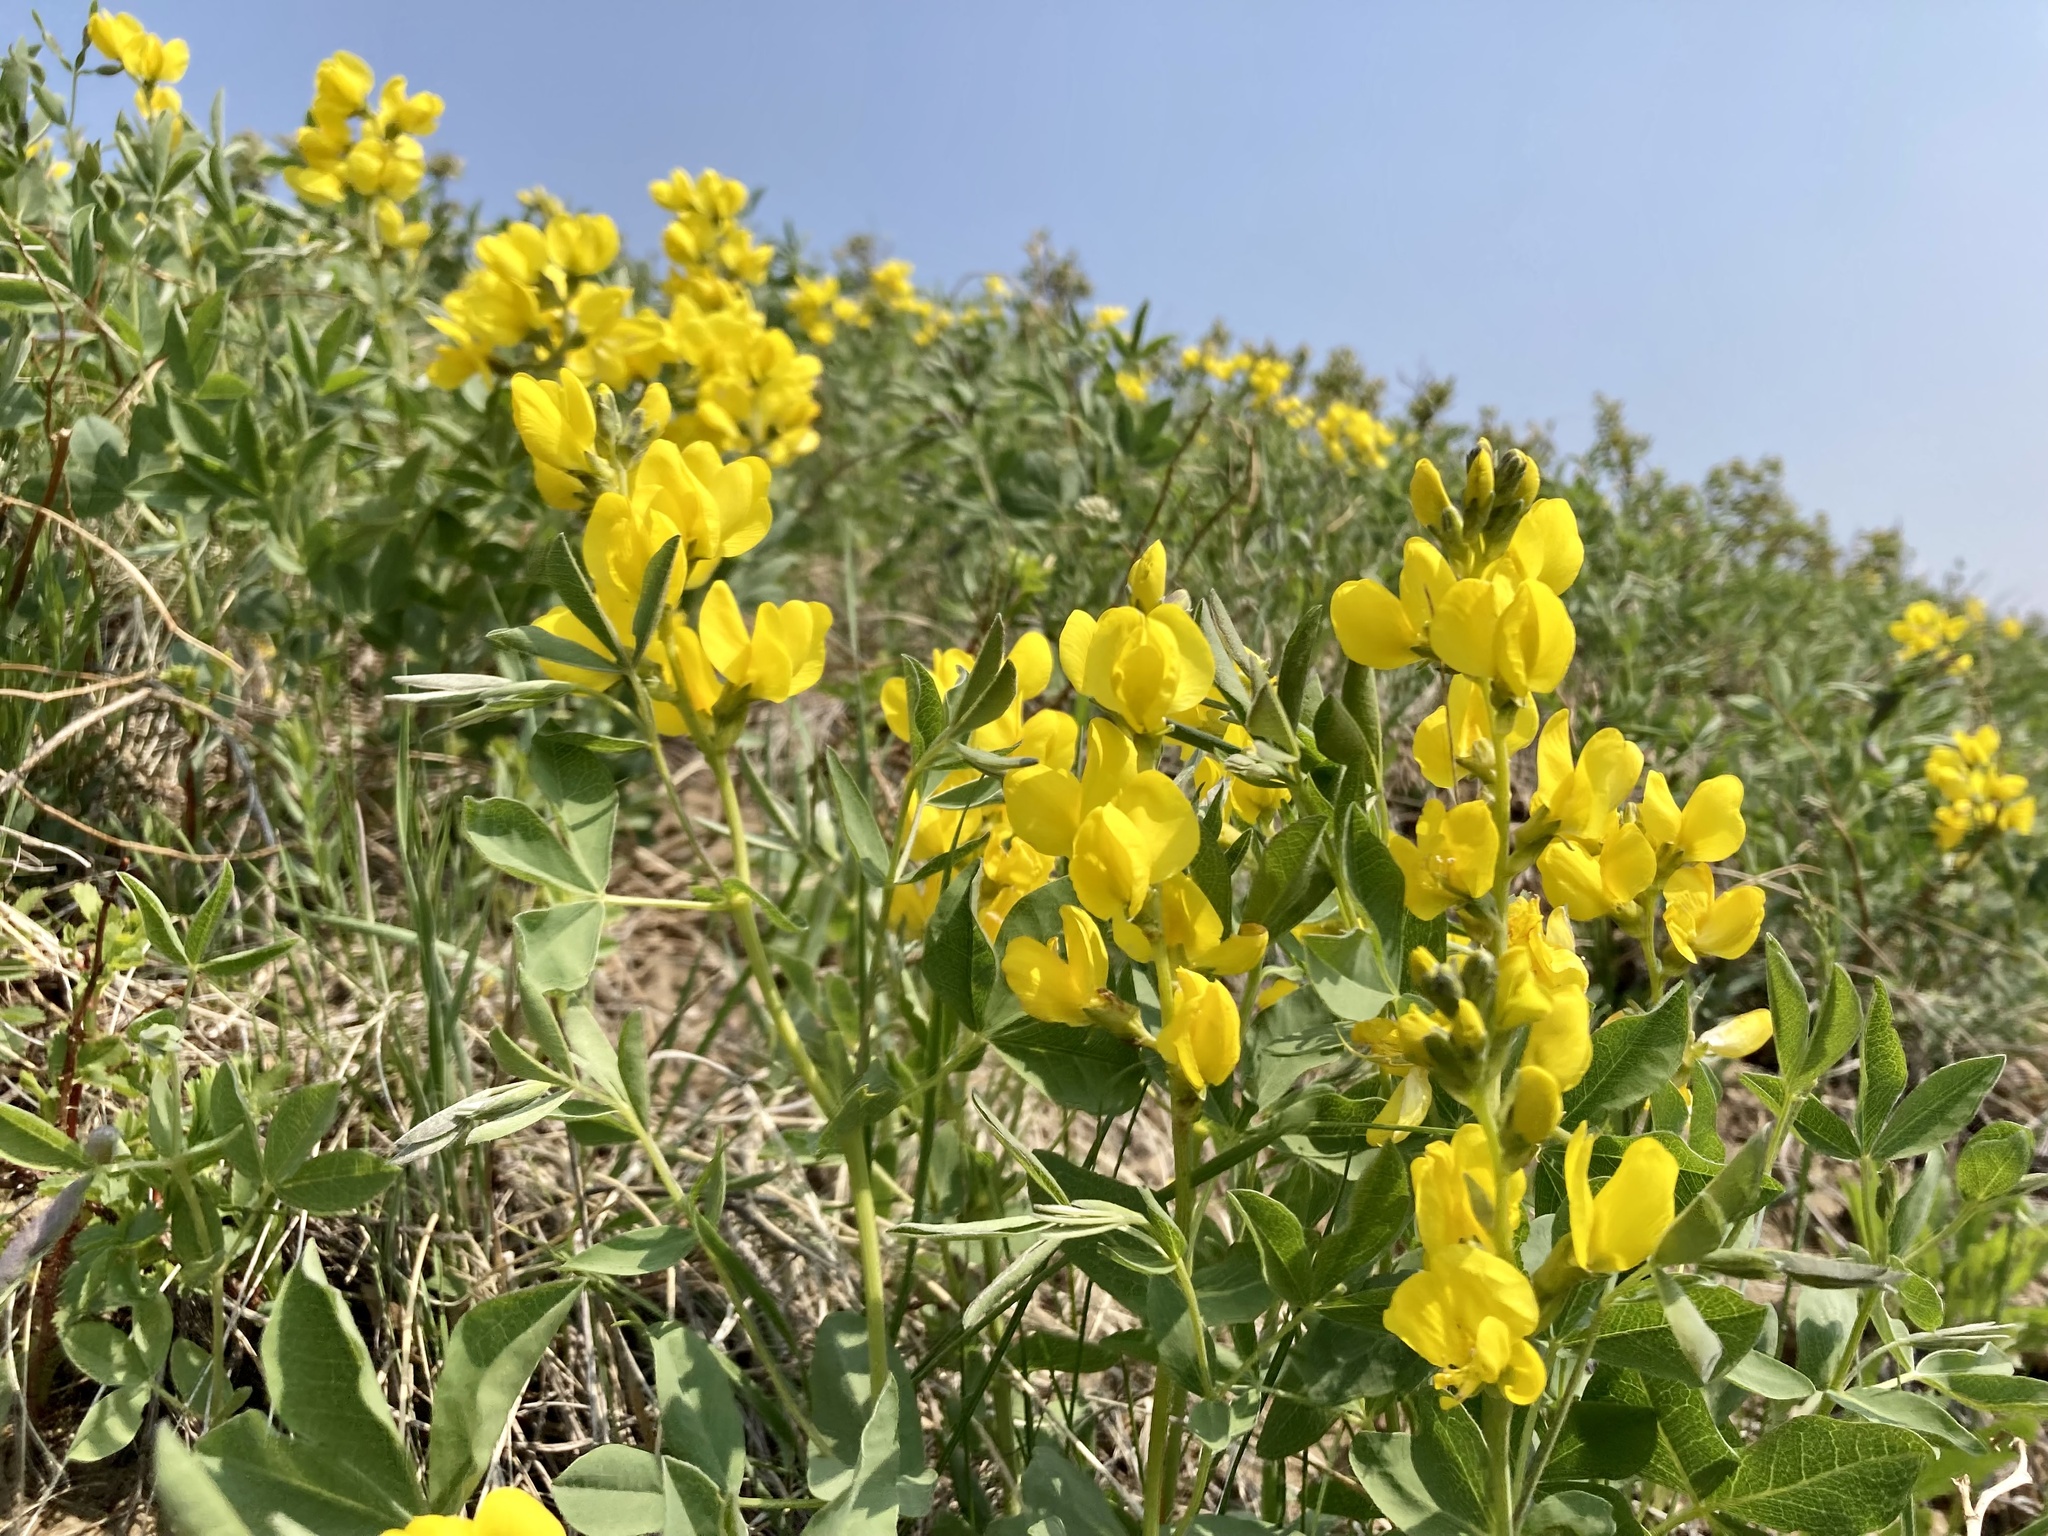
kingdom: Plantae
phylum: Tracheophyta
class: Magnoliopsida
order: Fabales
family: Fabaceae
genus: Thermopsis
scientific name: Thermopsis rhombifolia
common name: Circle-pod-pea
